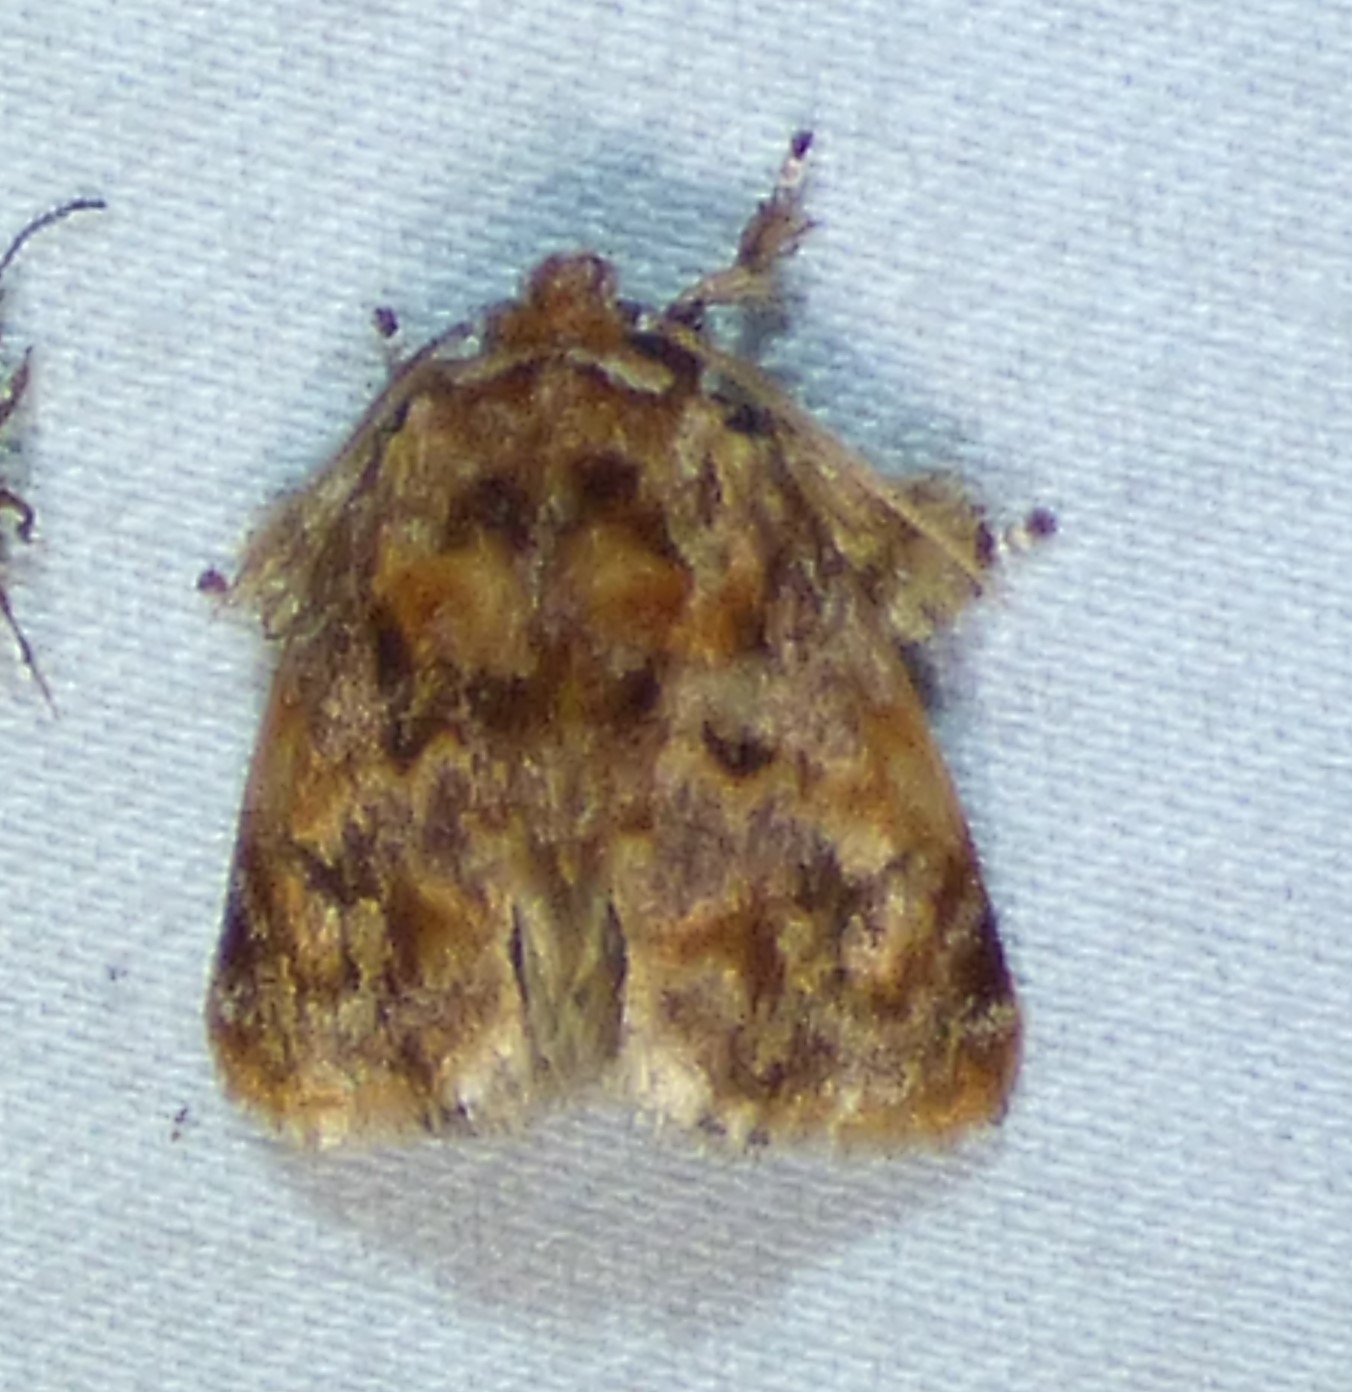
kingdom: Animalia
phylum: Arthropoda
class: Insecta
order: Lepidoptera
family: Limacodidae
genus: Isochaetes
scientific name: Isochaetes beutenmuelleri
